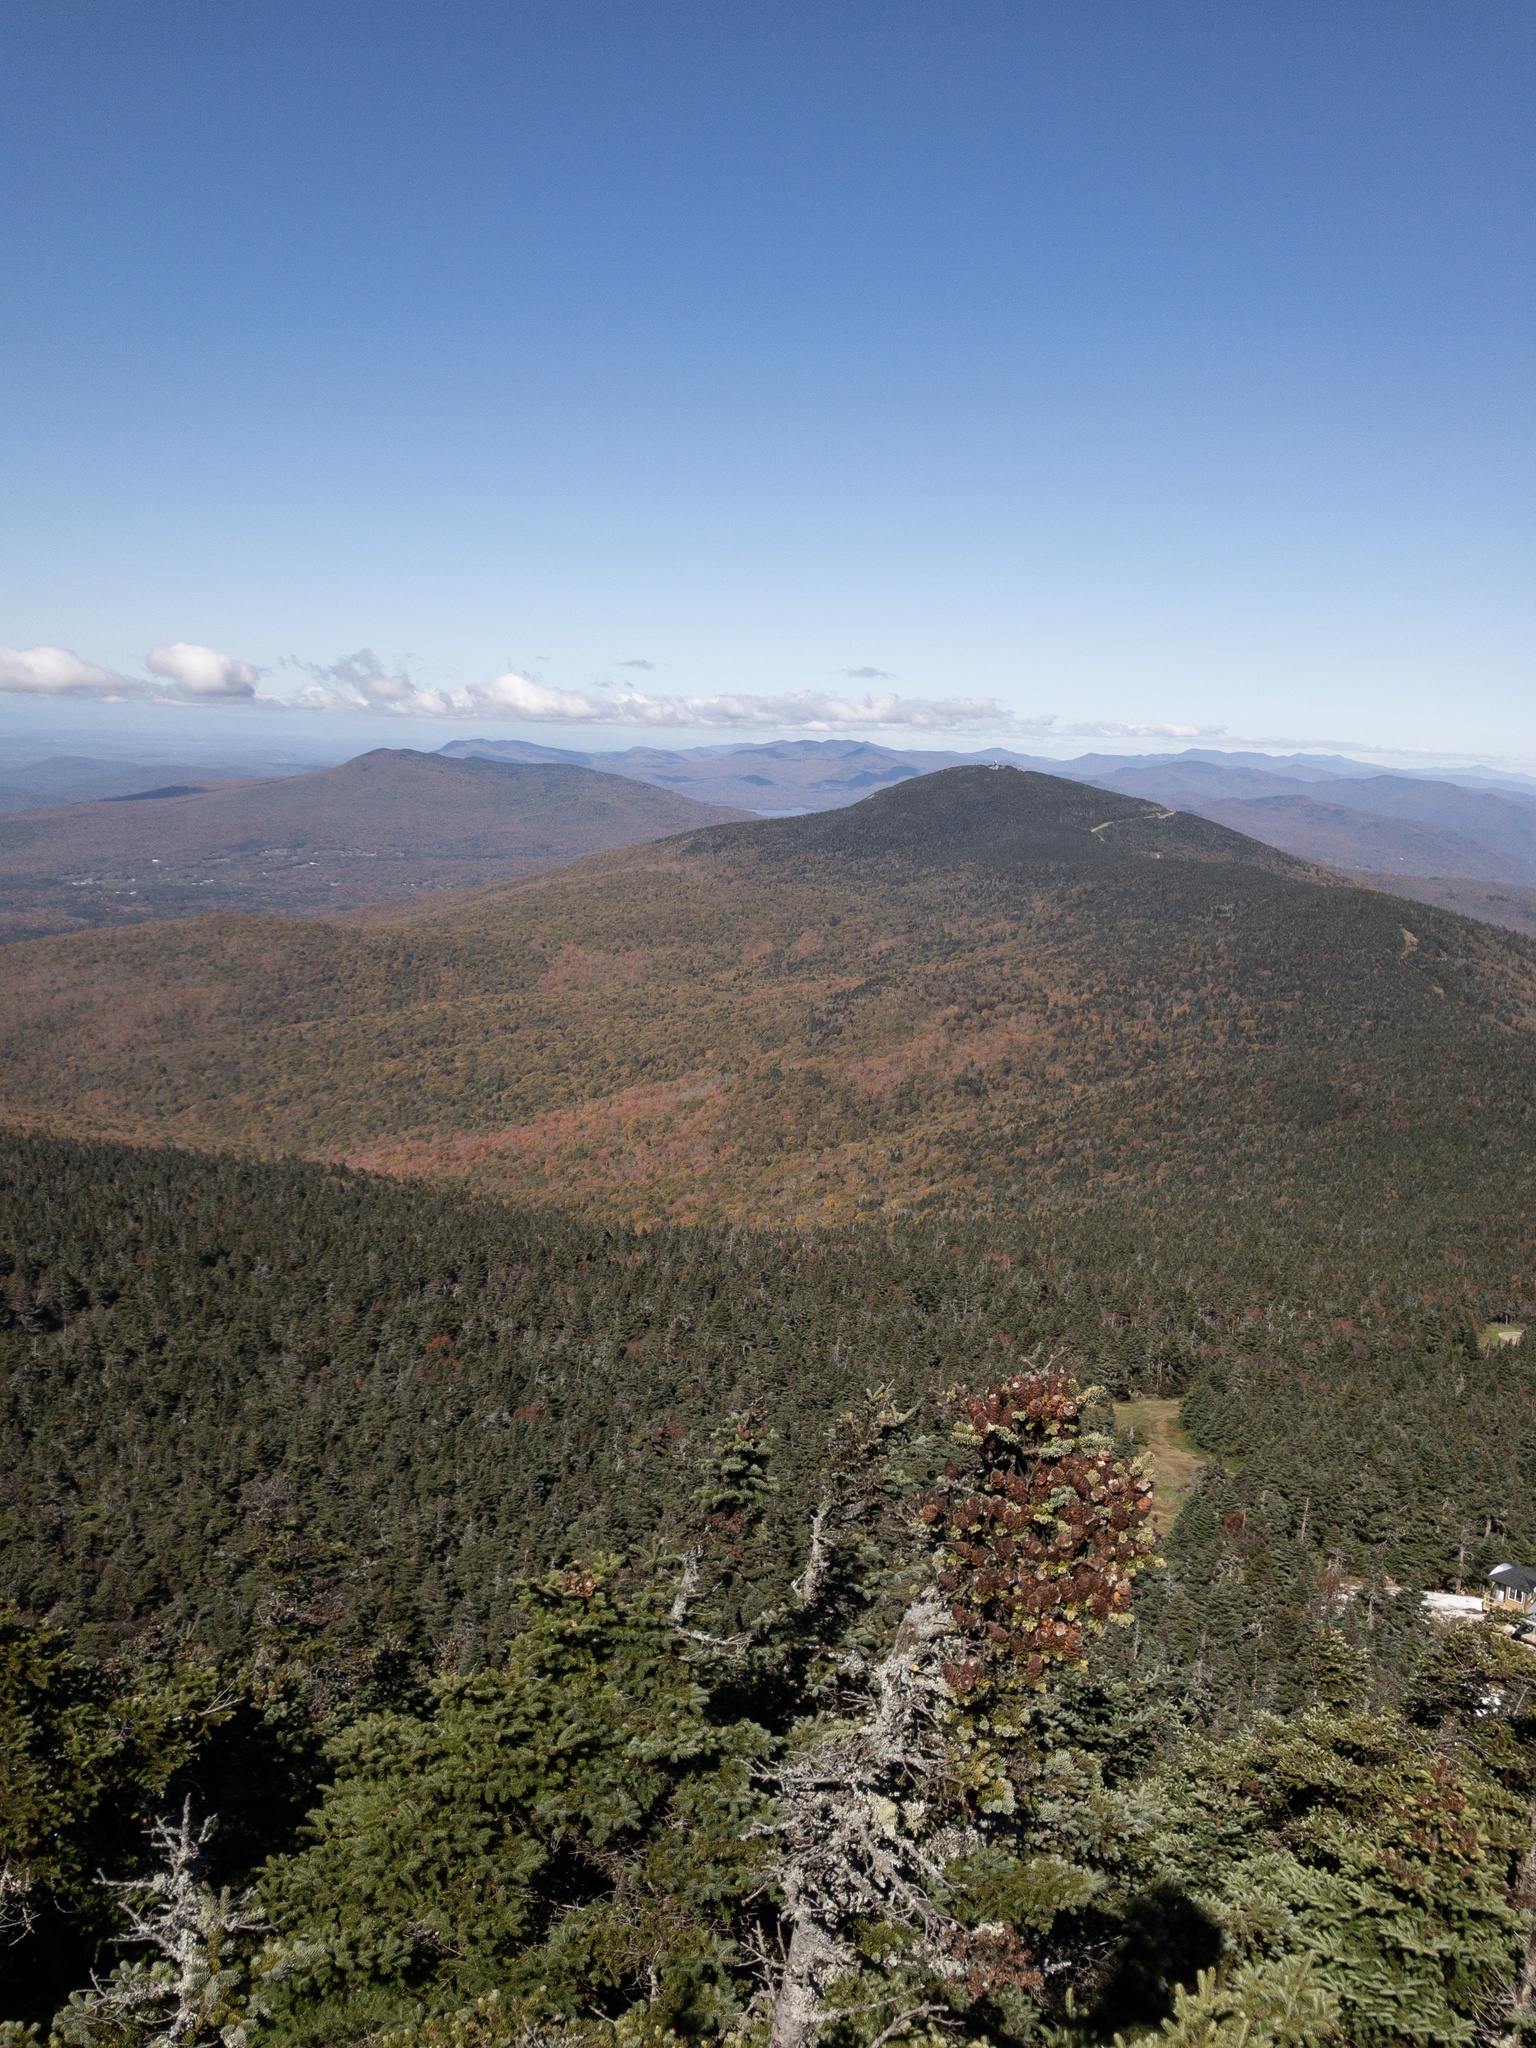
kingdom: Plantae
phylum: Tracheophyta
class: Pinopsida
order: Pinales
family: Pinaceae
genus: Abies
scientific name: Abies balsamea
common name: Balsam fir
